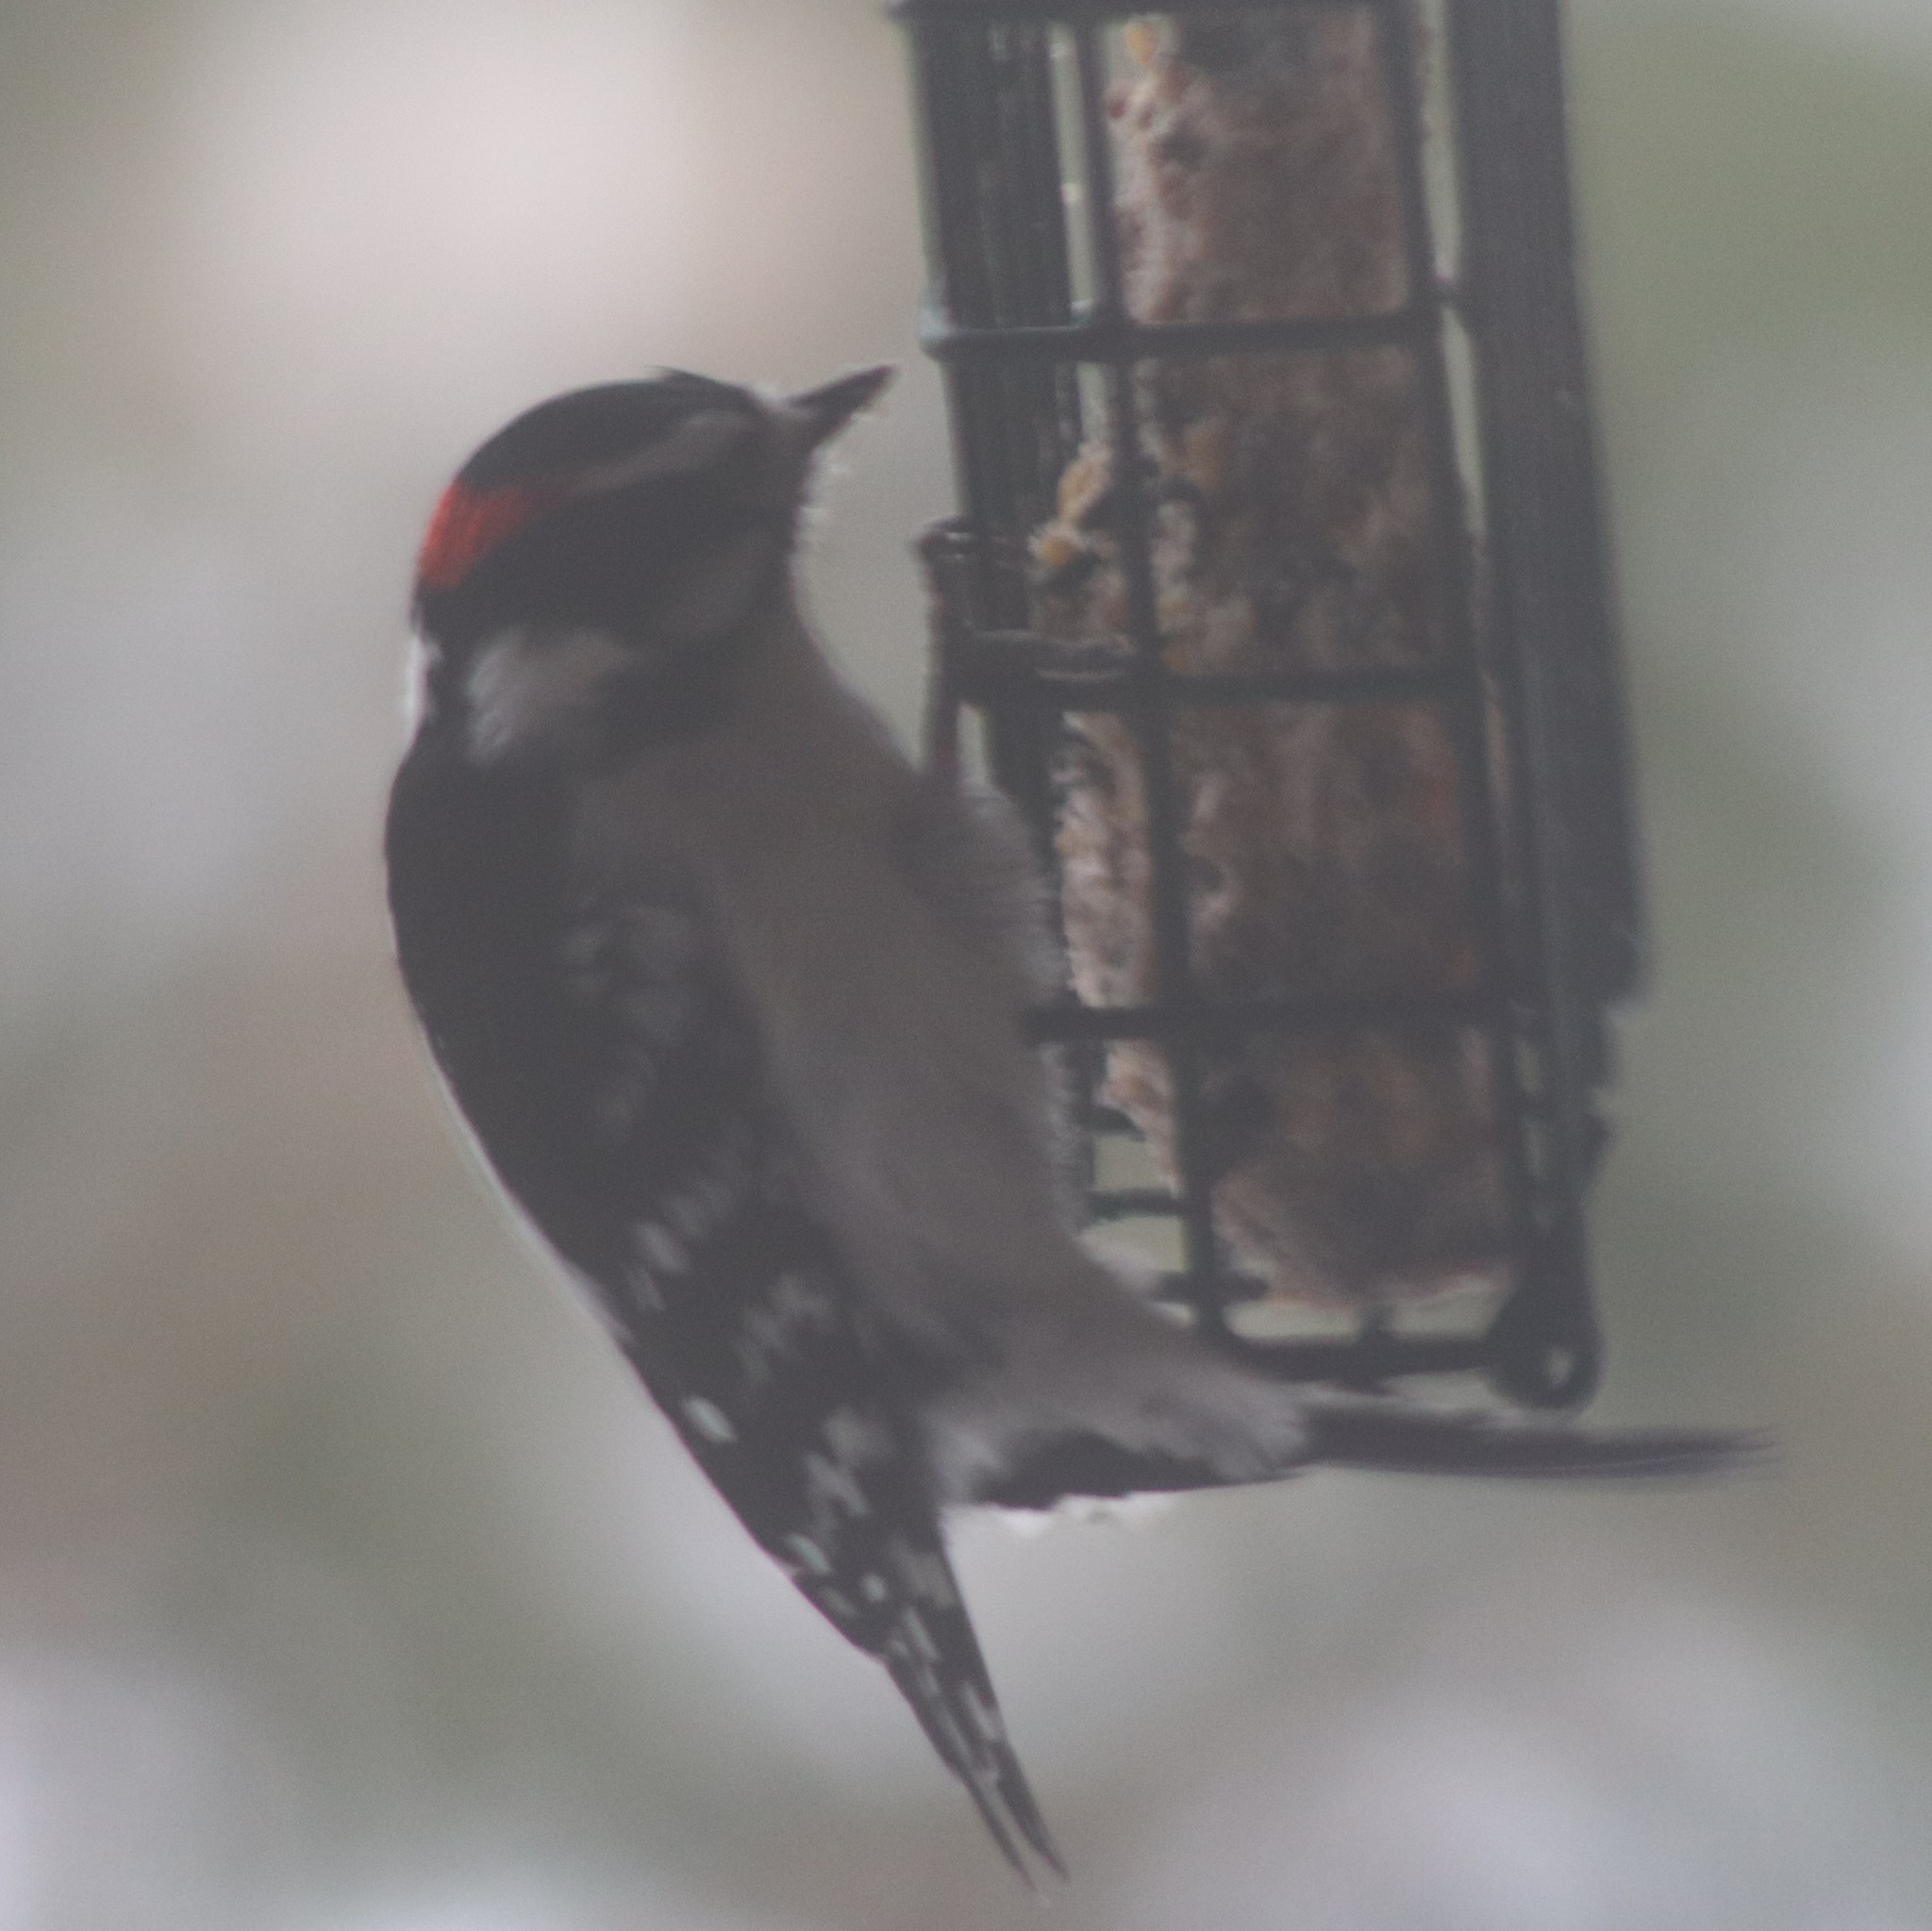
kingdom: Animalia
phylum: Chordata
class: Aves
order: Piciformes
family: Picidae
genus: Dryobates
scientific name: Dryobates pubescens
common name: Downy woodpecker
